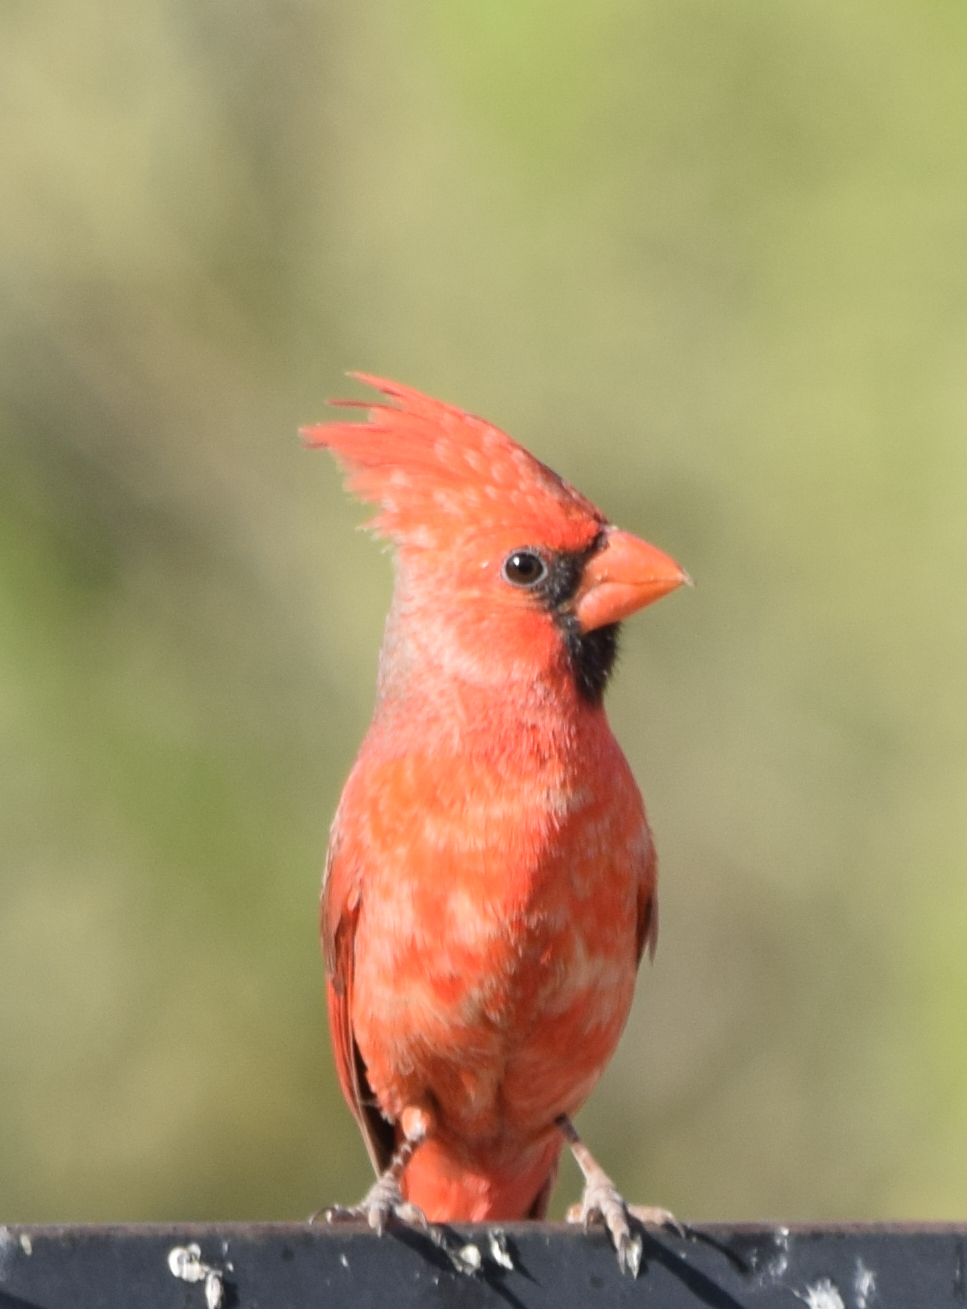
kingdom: Animalia
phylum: Chordata
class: Aves
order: Passeriformes
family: Cardinalidae
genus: Cardinalis
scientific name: Cardinalis cardinalis
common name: Northern cardinal
